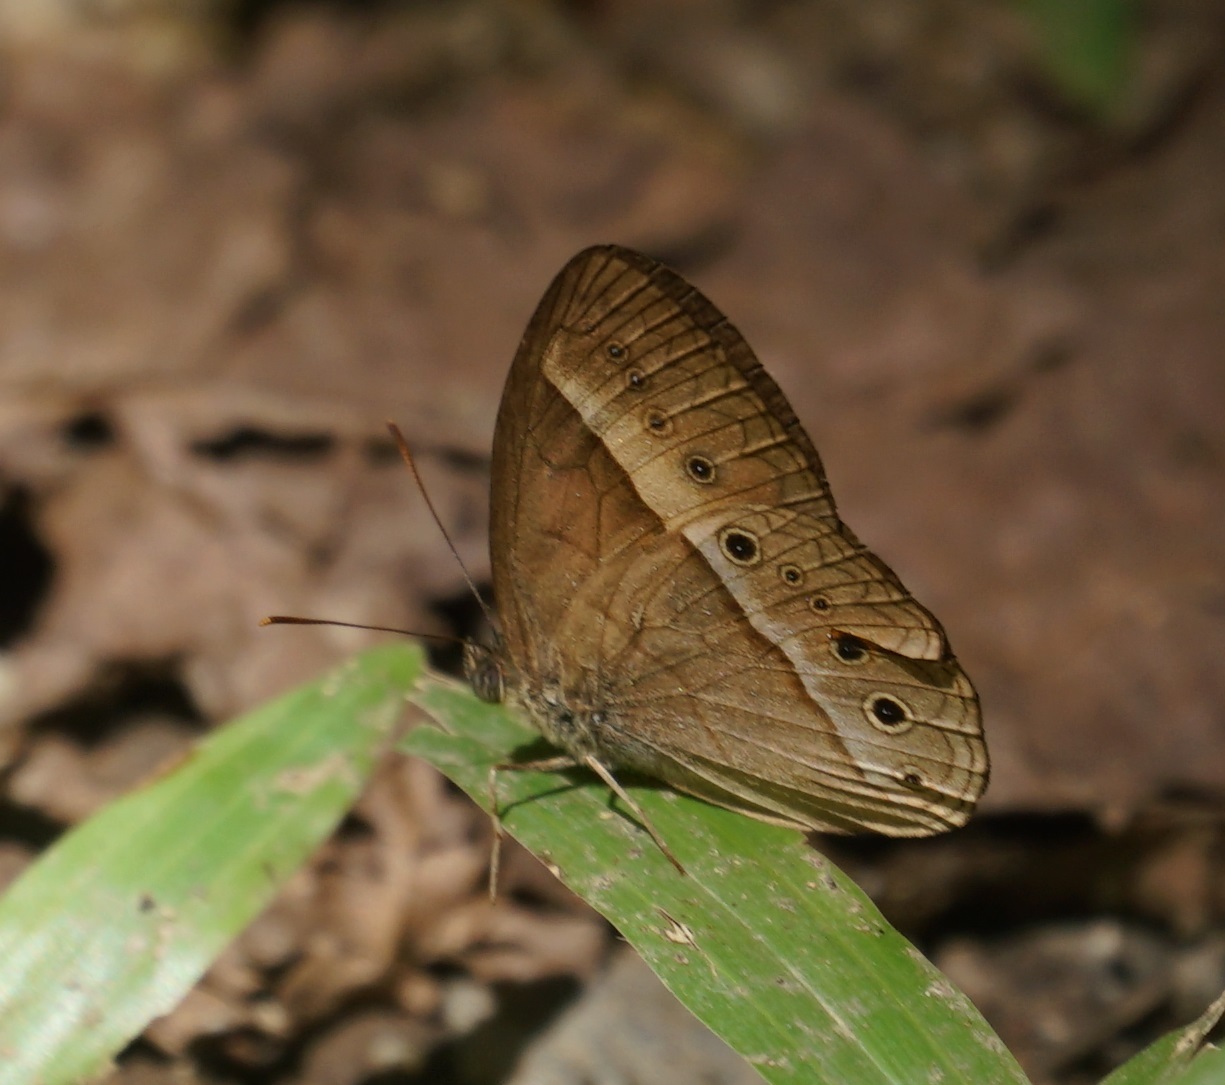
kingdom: Animalia
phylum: Arthropoda
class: Insecta
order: Lepidoptera
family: Nymphalidae
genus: Mycalesis
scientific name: Mycalesis terminus
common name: Orange bushbrown
